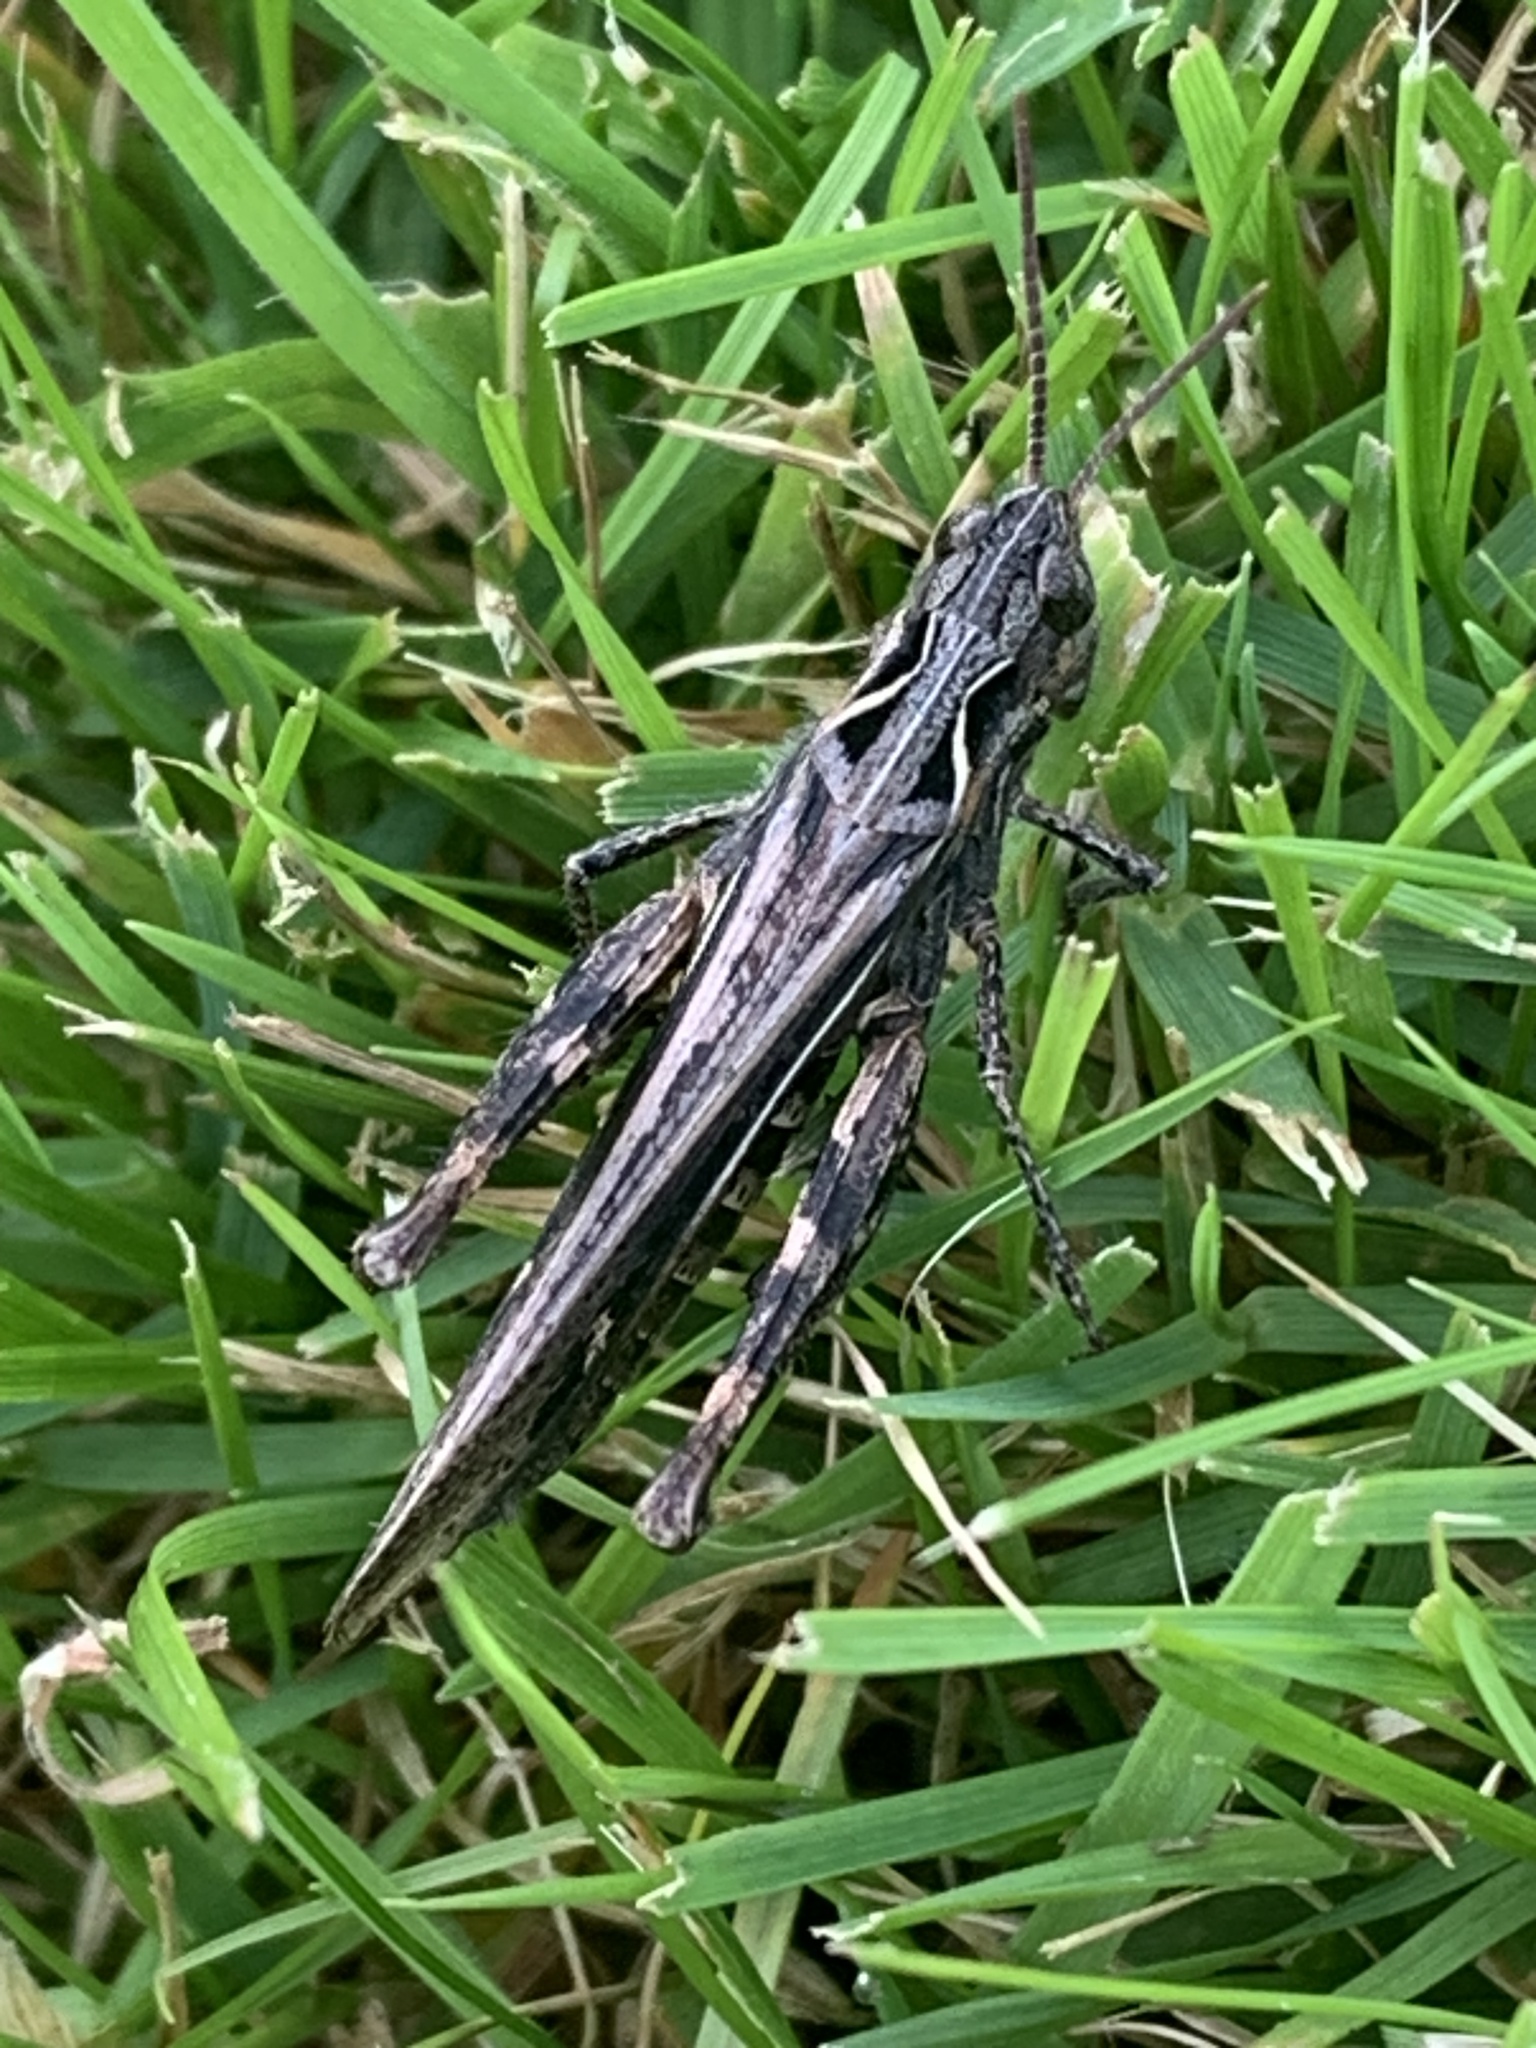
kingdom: Animalia
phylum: Arthropoda
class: Insecta
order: Orthoptera
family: Acrididae
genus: Chorthippus
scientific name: Chorthippus brunneus
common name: Field grasshopper
